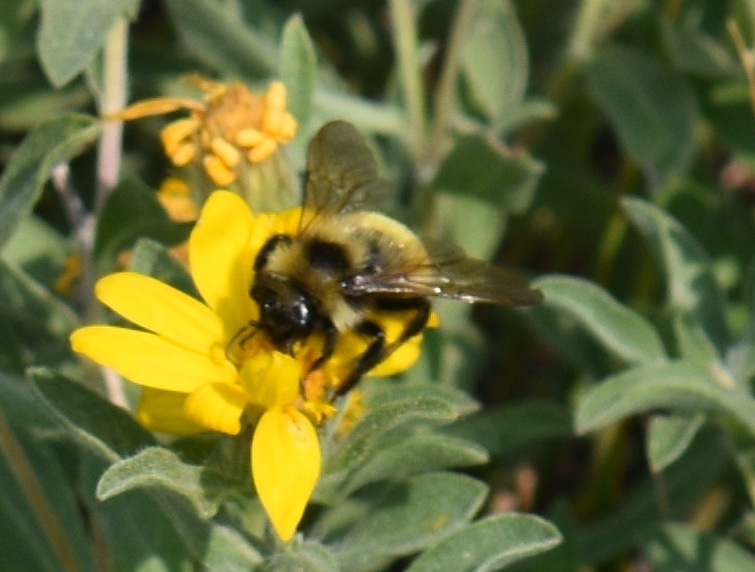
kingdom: Animalia
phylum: Arthropoda
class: Insecta
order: Hymenoptera
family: Apidae
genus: Bombus
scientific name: Bombus insularis
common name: Indiscriminate cuckoo bumble bee
